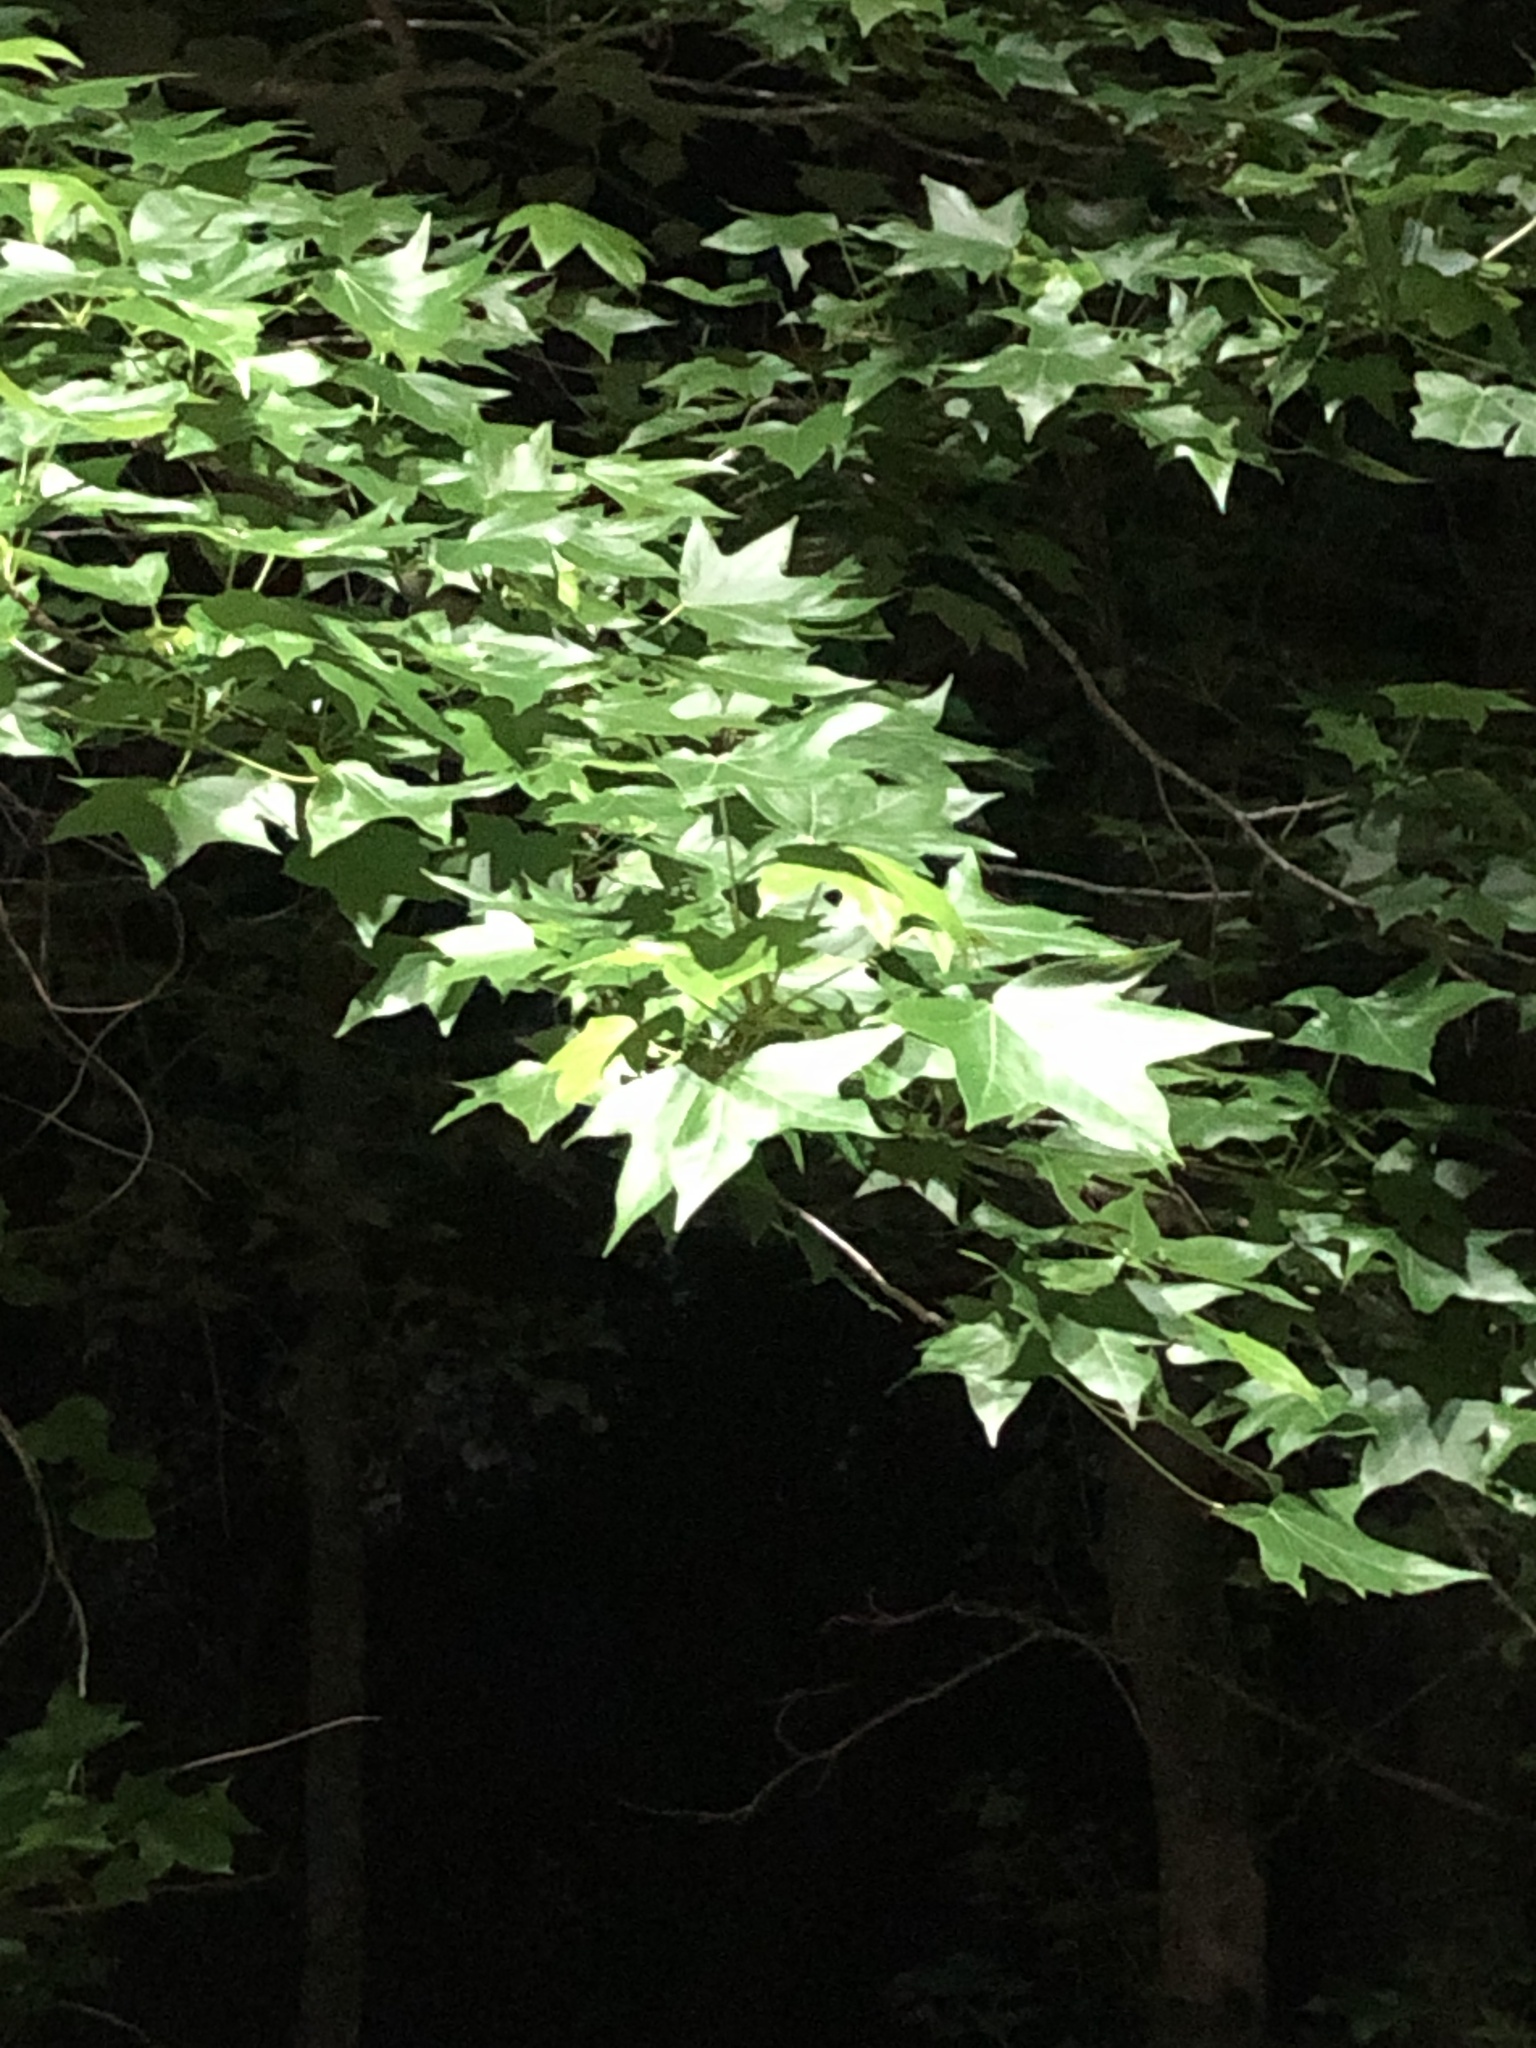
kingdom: Plantae
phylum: Tracheophyta
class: Magnoliopsida
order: Saxifragales
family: Altingiaceae
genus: Liquidambar
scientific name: Liquidambar styraciflua
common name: Sweet gum
